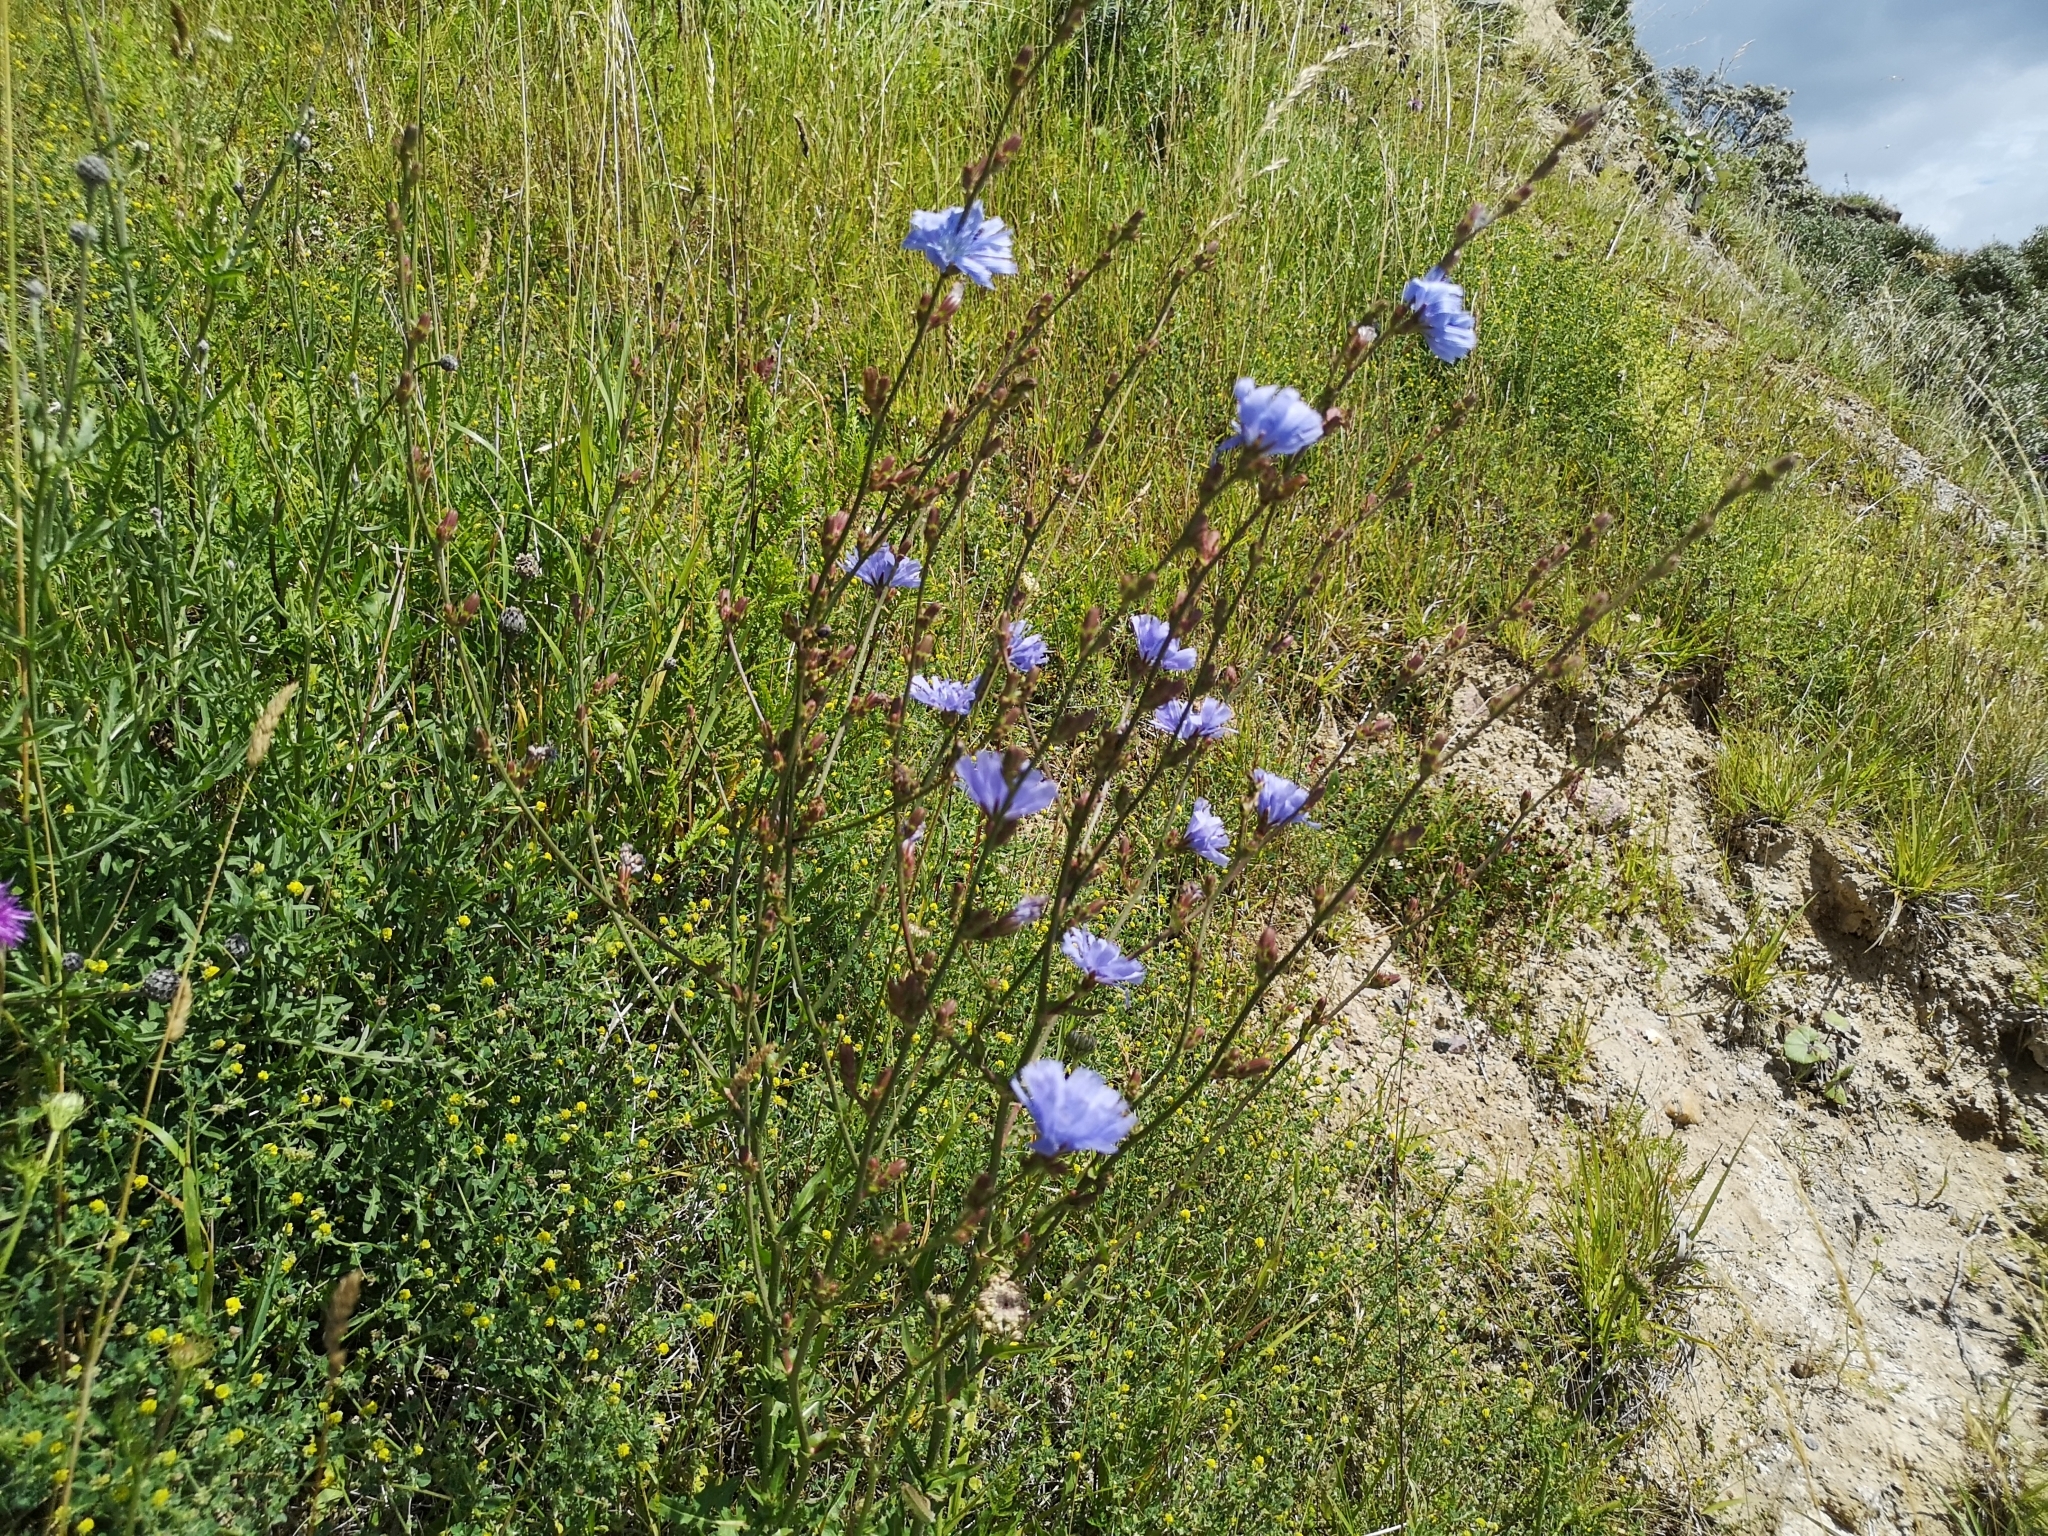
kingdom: Plantae
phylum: Tracheophyta
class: Magnoliopsida
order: Asterales
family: Asteraceae
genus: Cichorium
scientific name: Cichorium intybus
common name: Chicory
